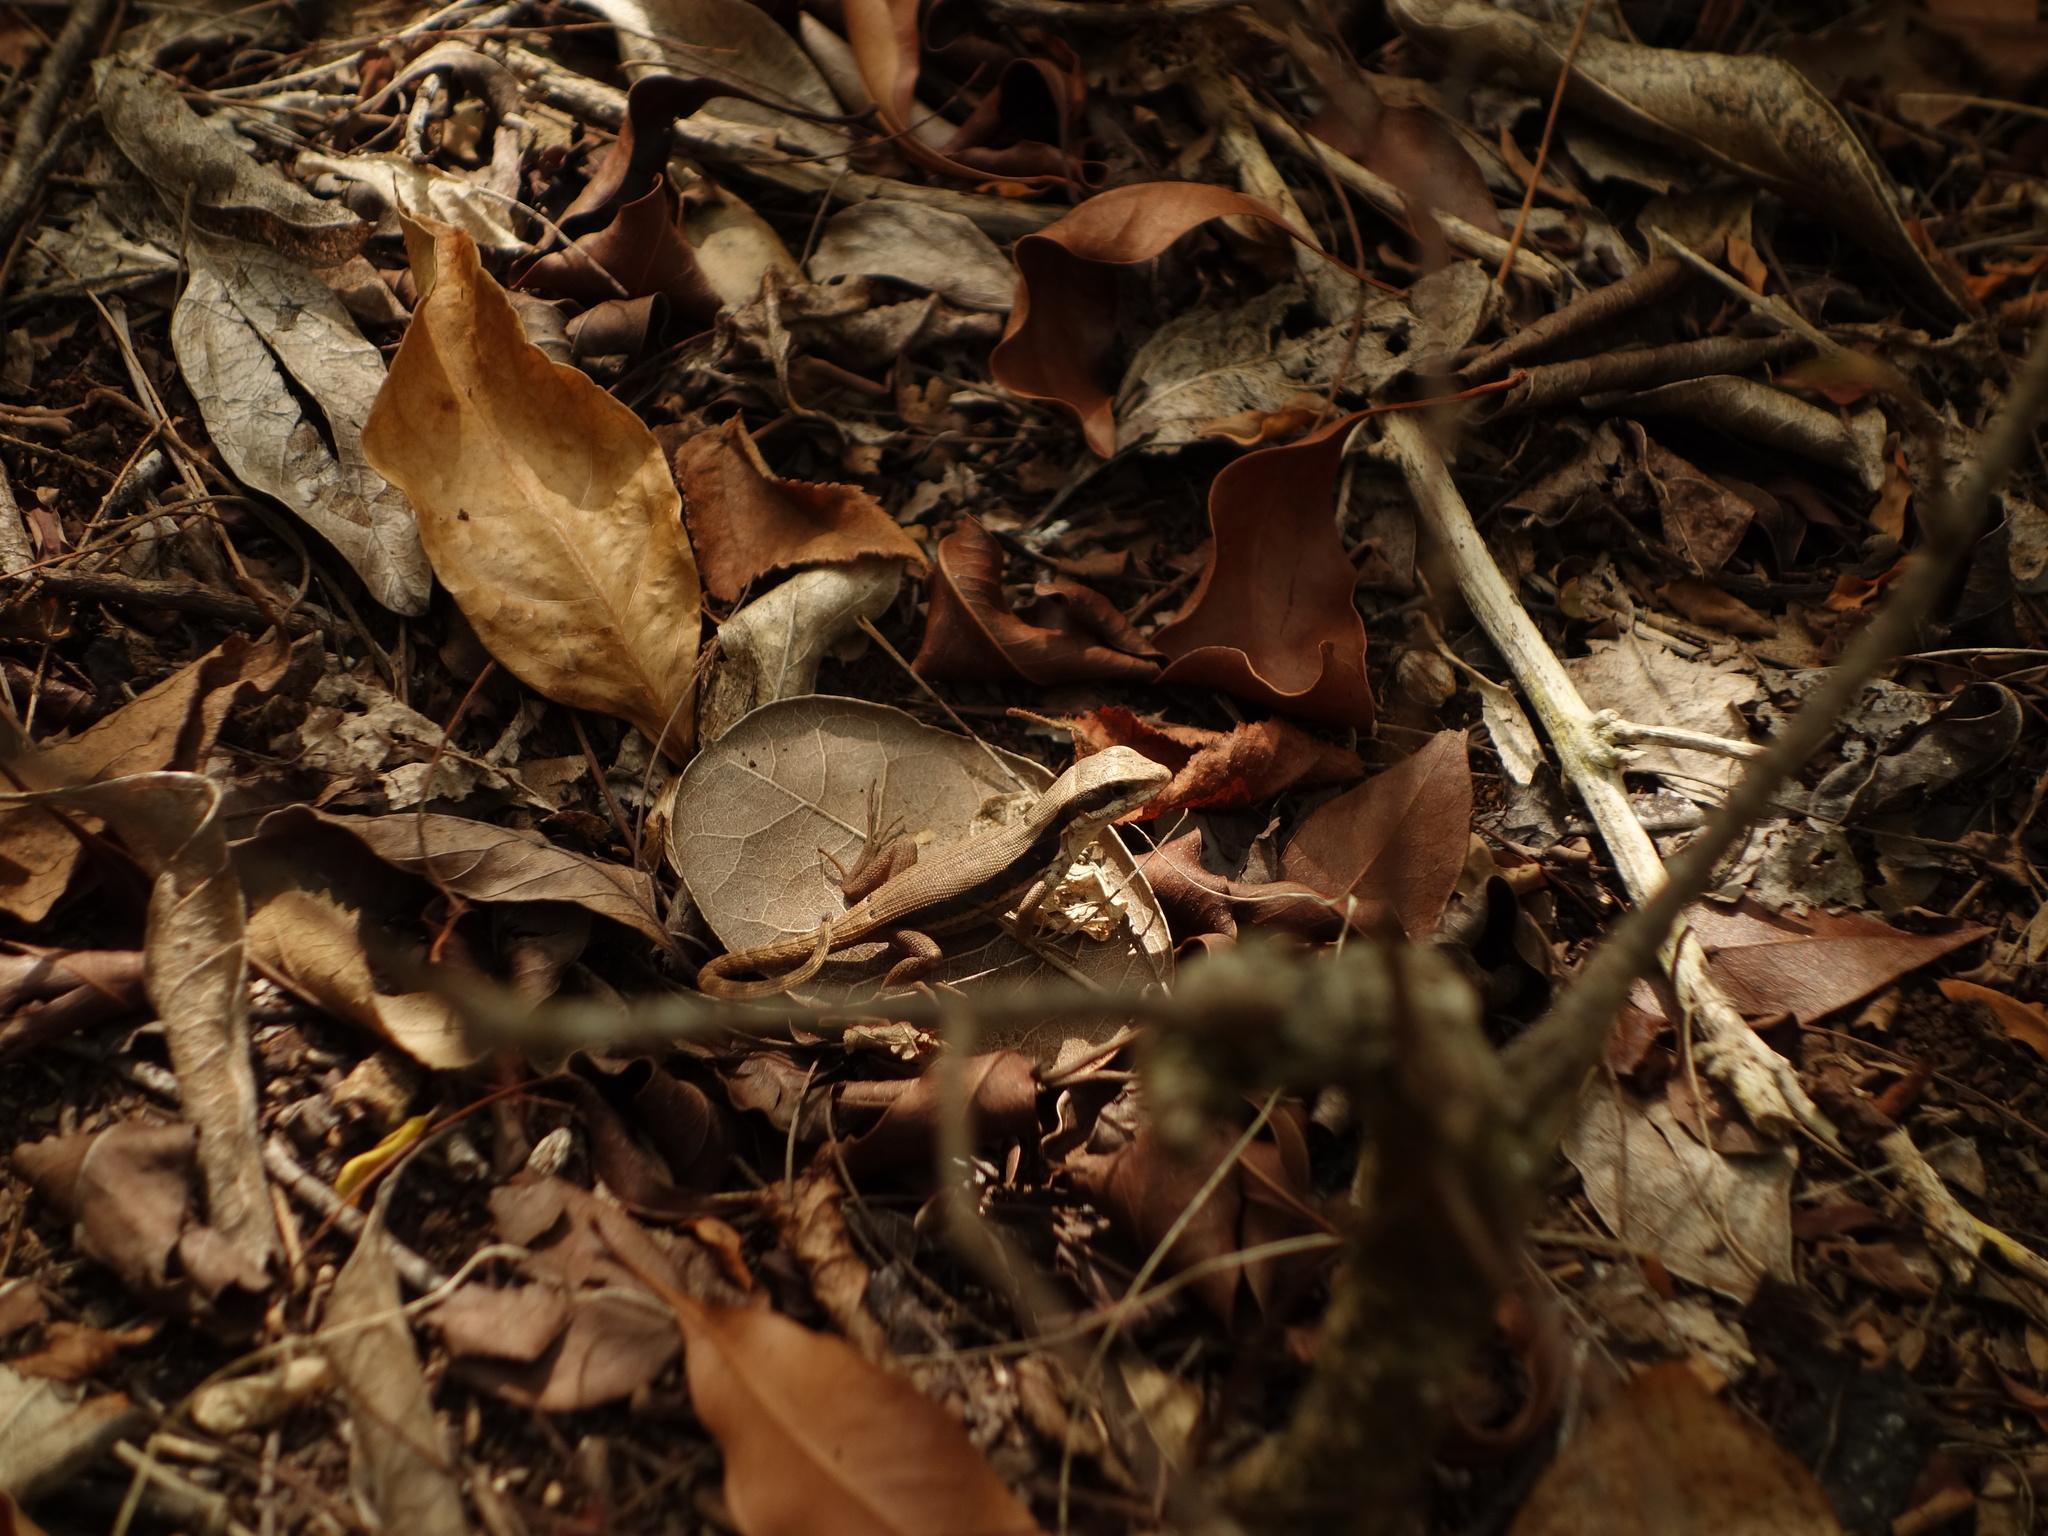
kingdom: Animalia
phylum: Chordata
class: Squamata
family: Leiocephalidae
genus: Leiocephalus
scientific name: Leiocephalus macropus
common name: Monte verde curlytail lizard
